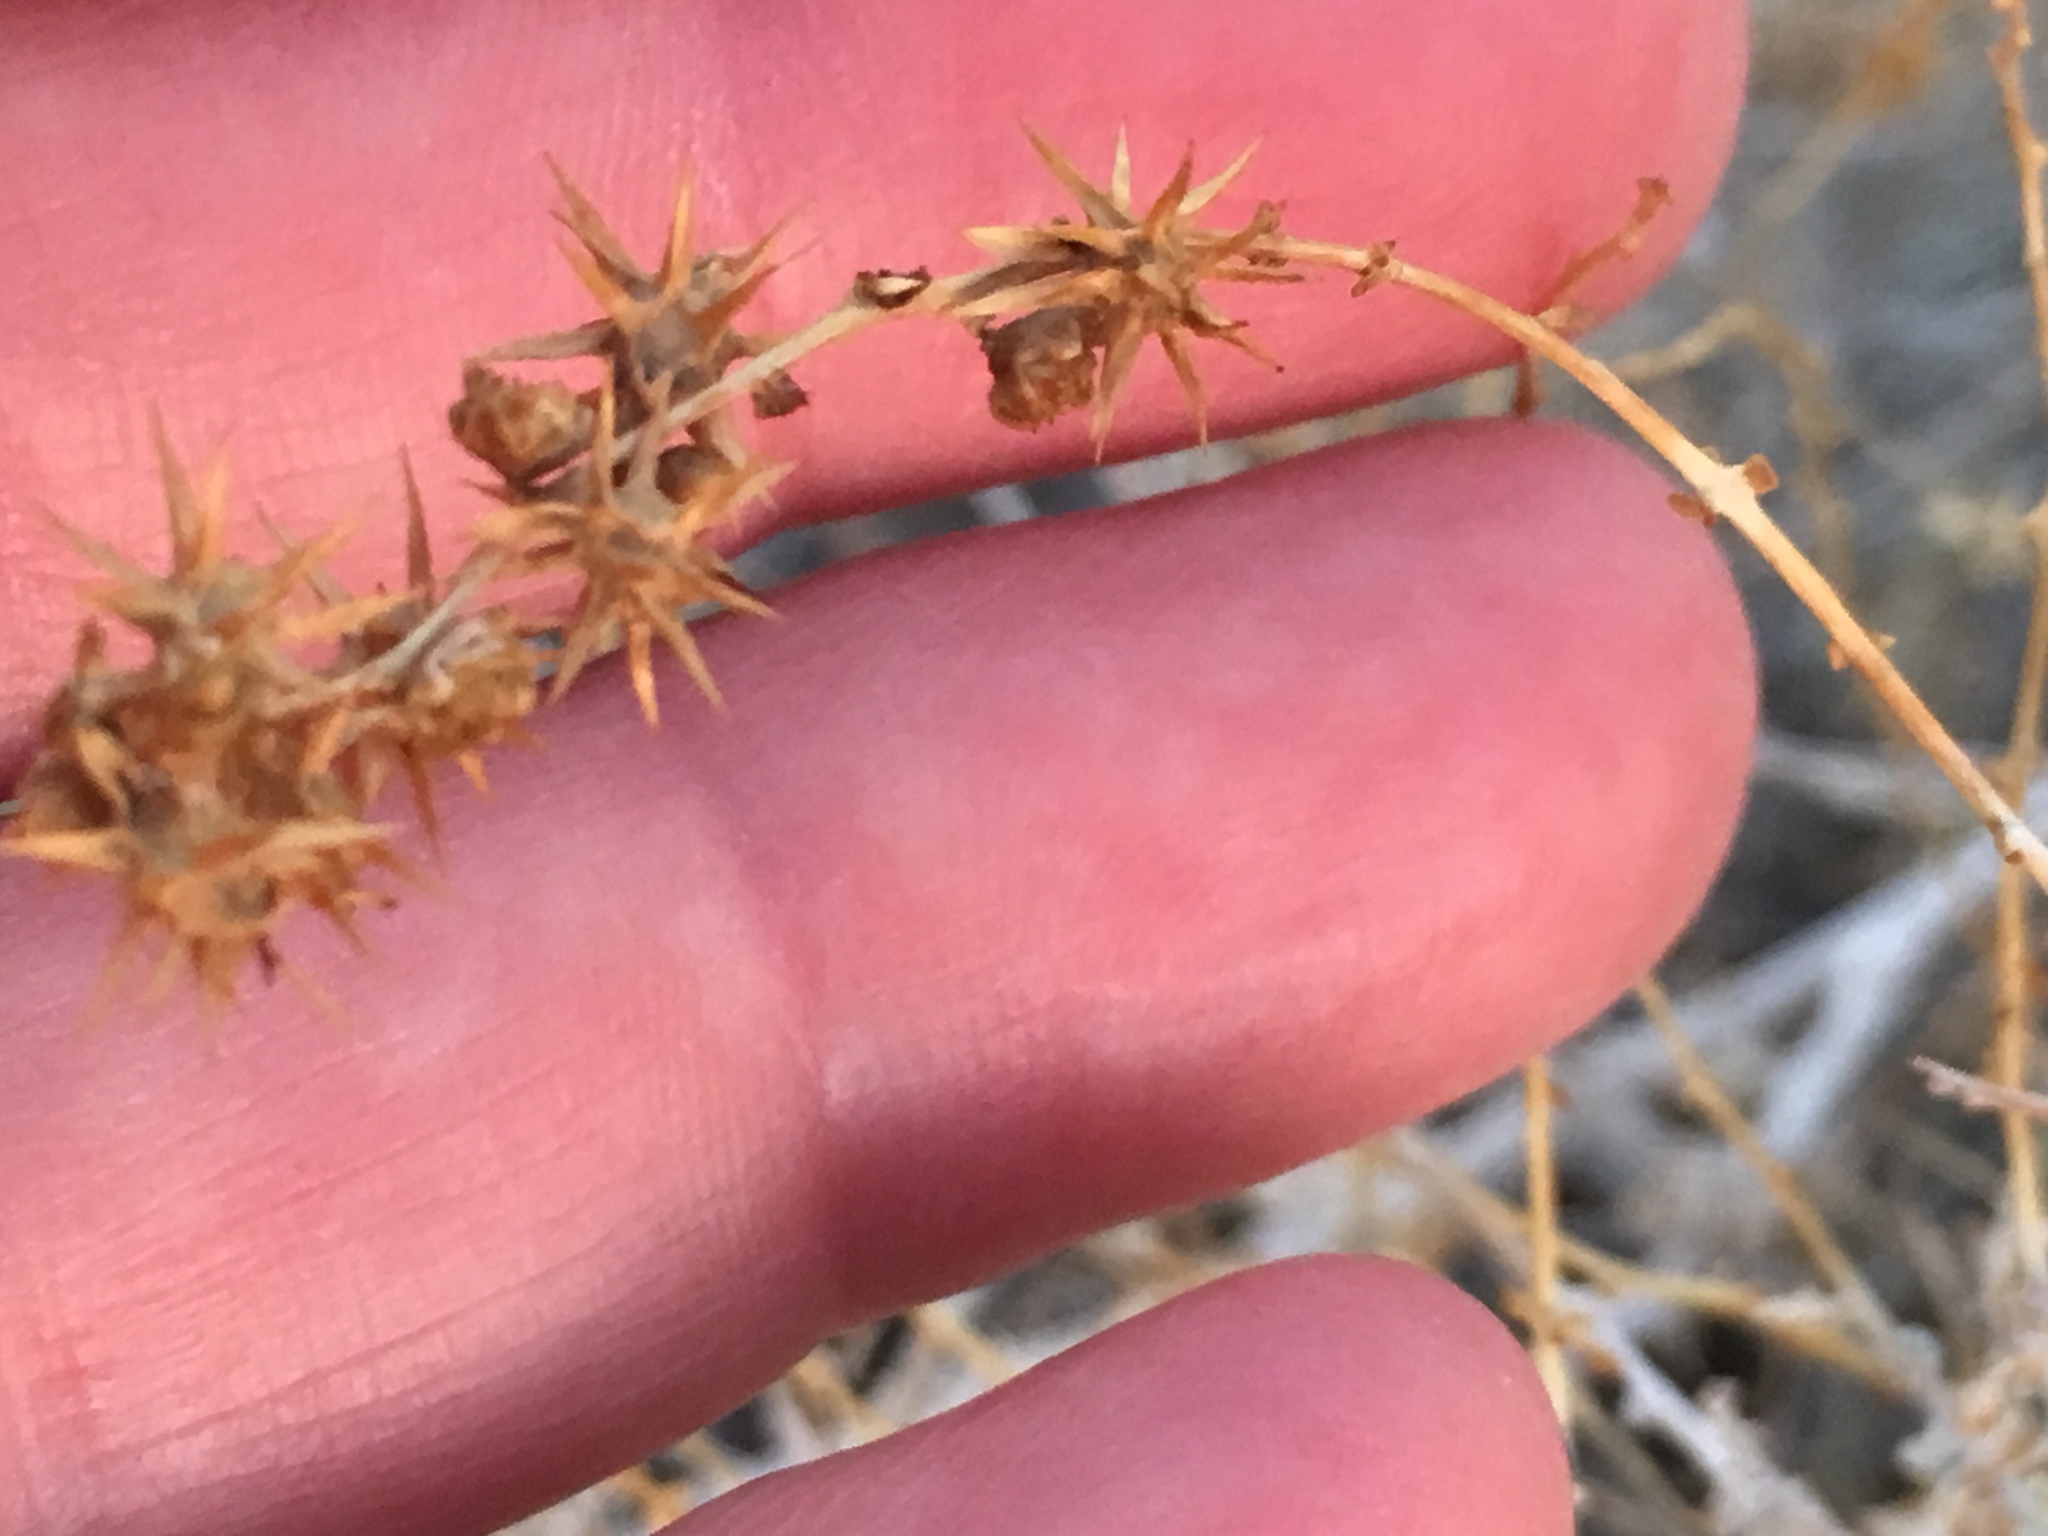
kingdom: Plantae
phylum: Tracheophyta
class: Magnoliopsida
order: Asterales
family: Asteraceae
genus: Ambrosia
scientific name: Ambrosia dumosa
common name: Bur-sage
